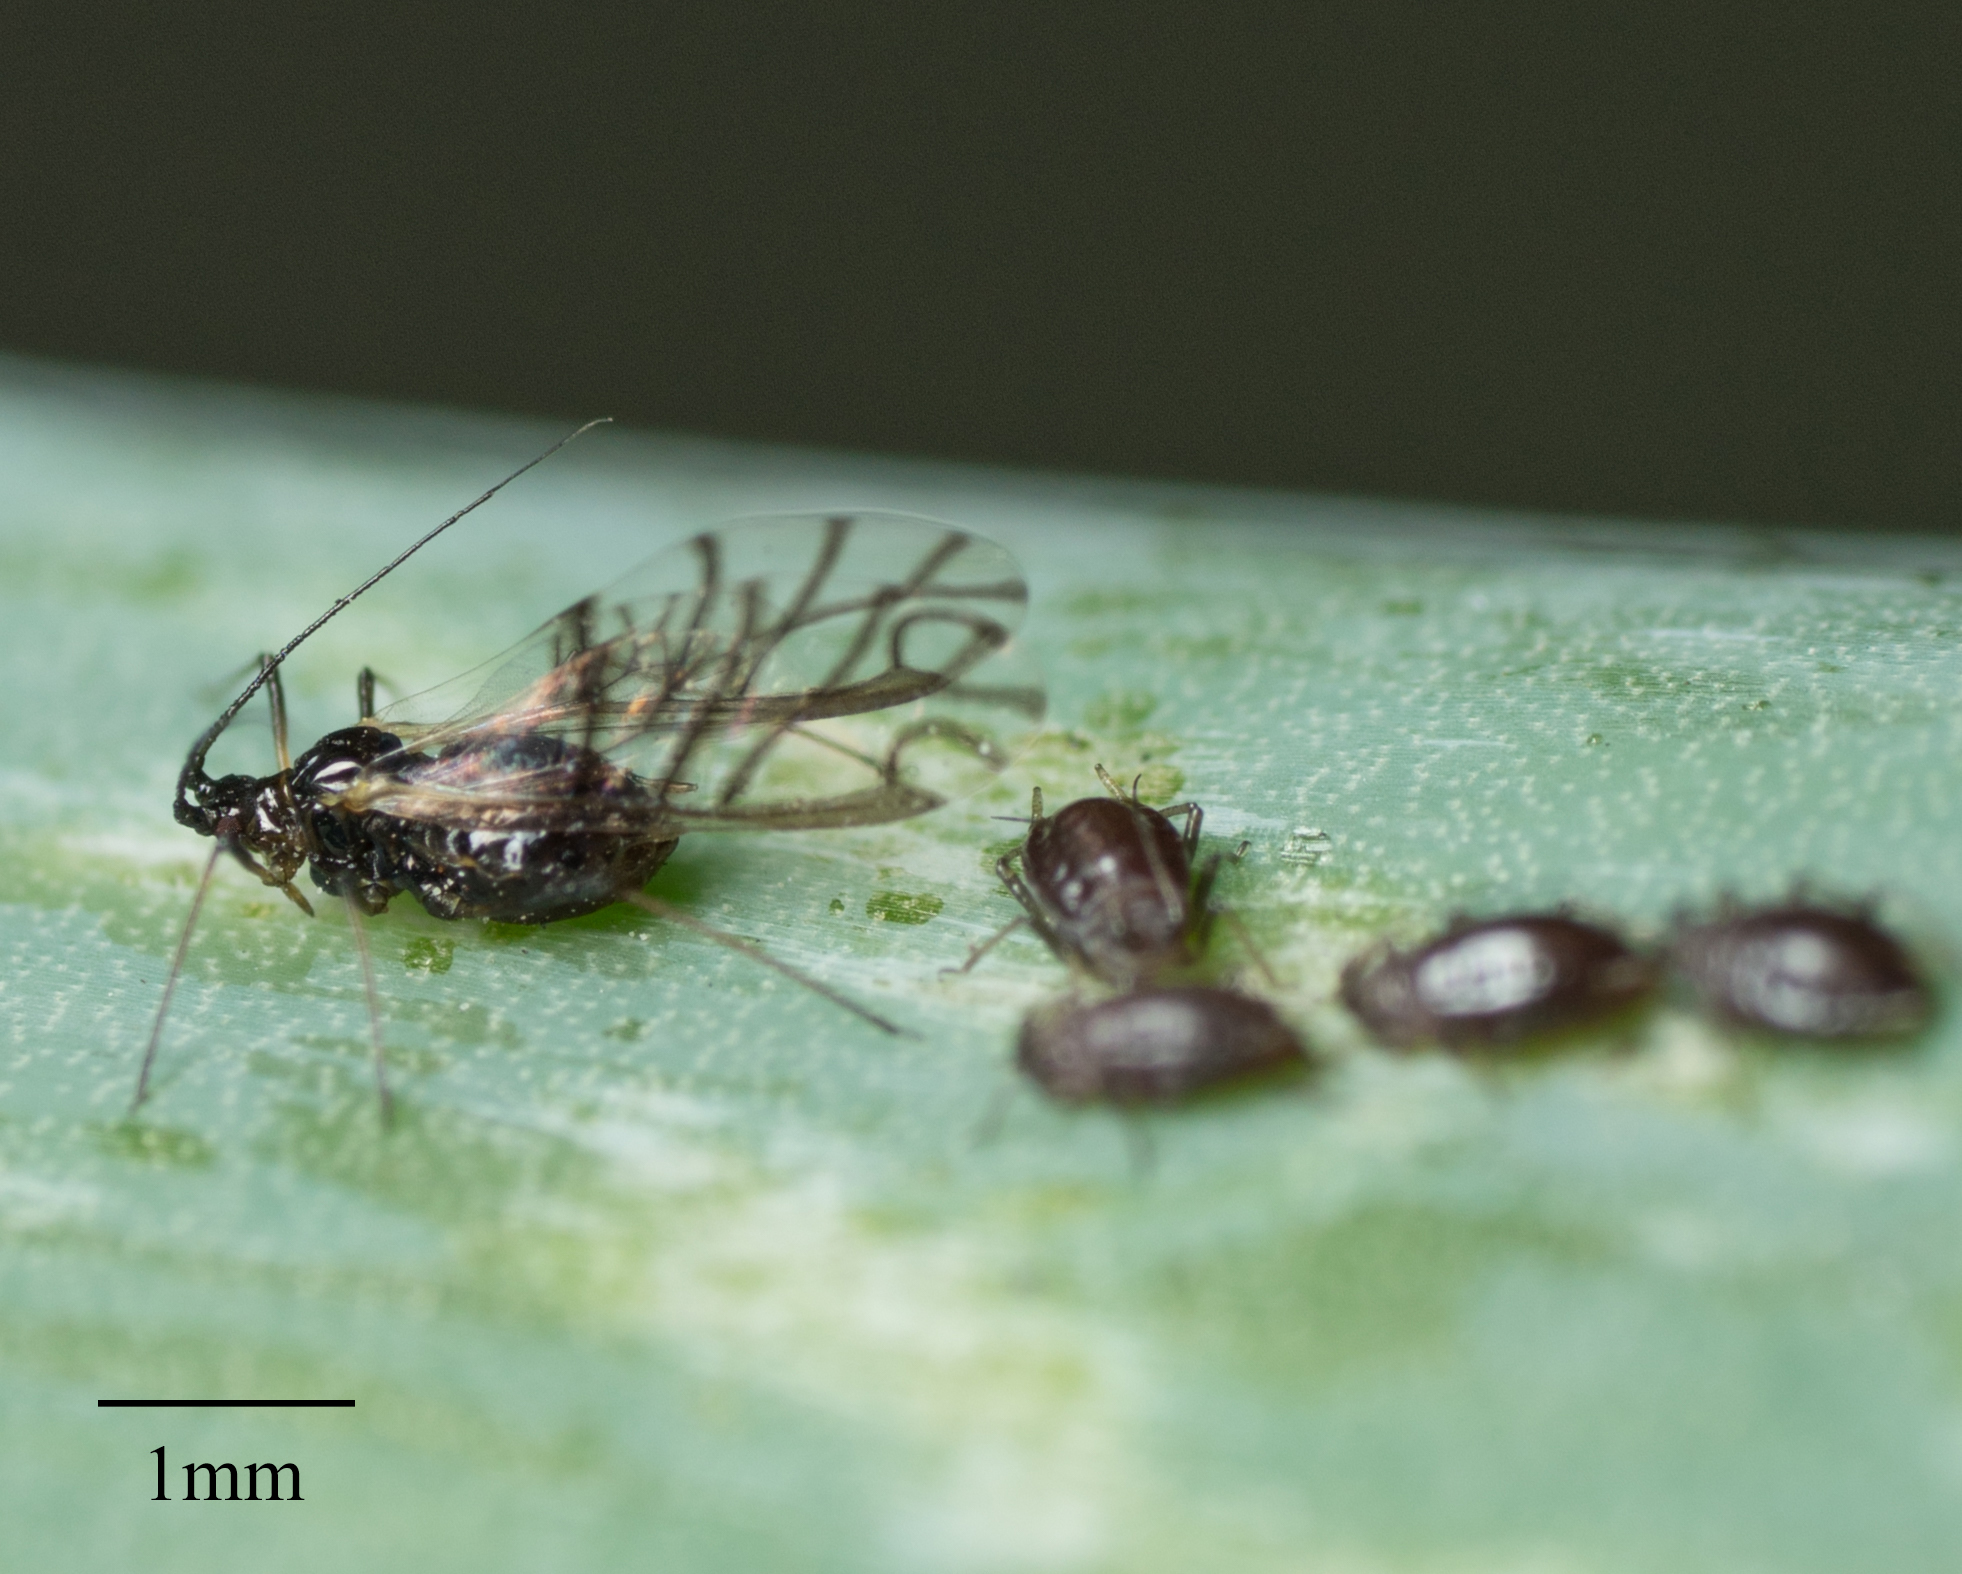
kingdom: Animalia
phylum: Arthropoda
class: Insecta
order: Hemiptera
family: Aphididae
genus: Neotoxoptera
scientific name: Neotoxoptera formosana
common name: Onion aphid
